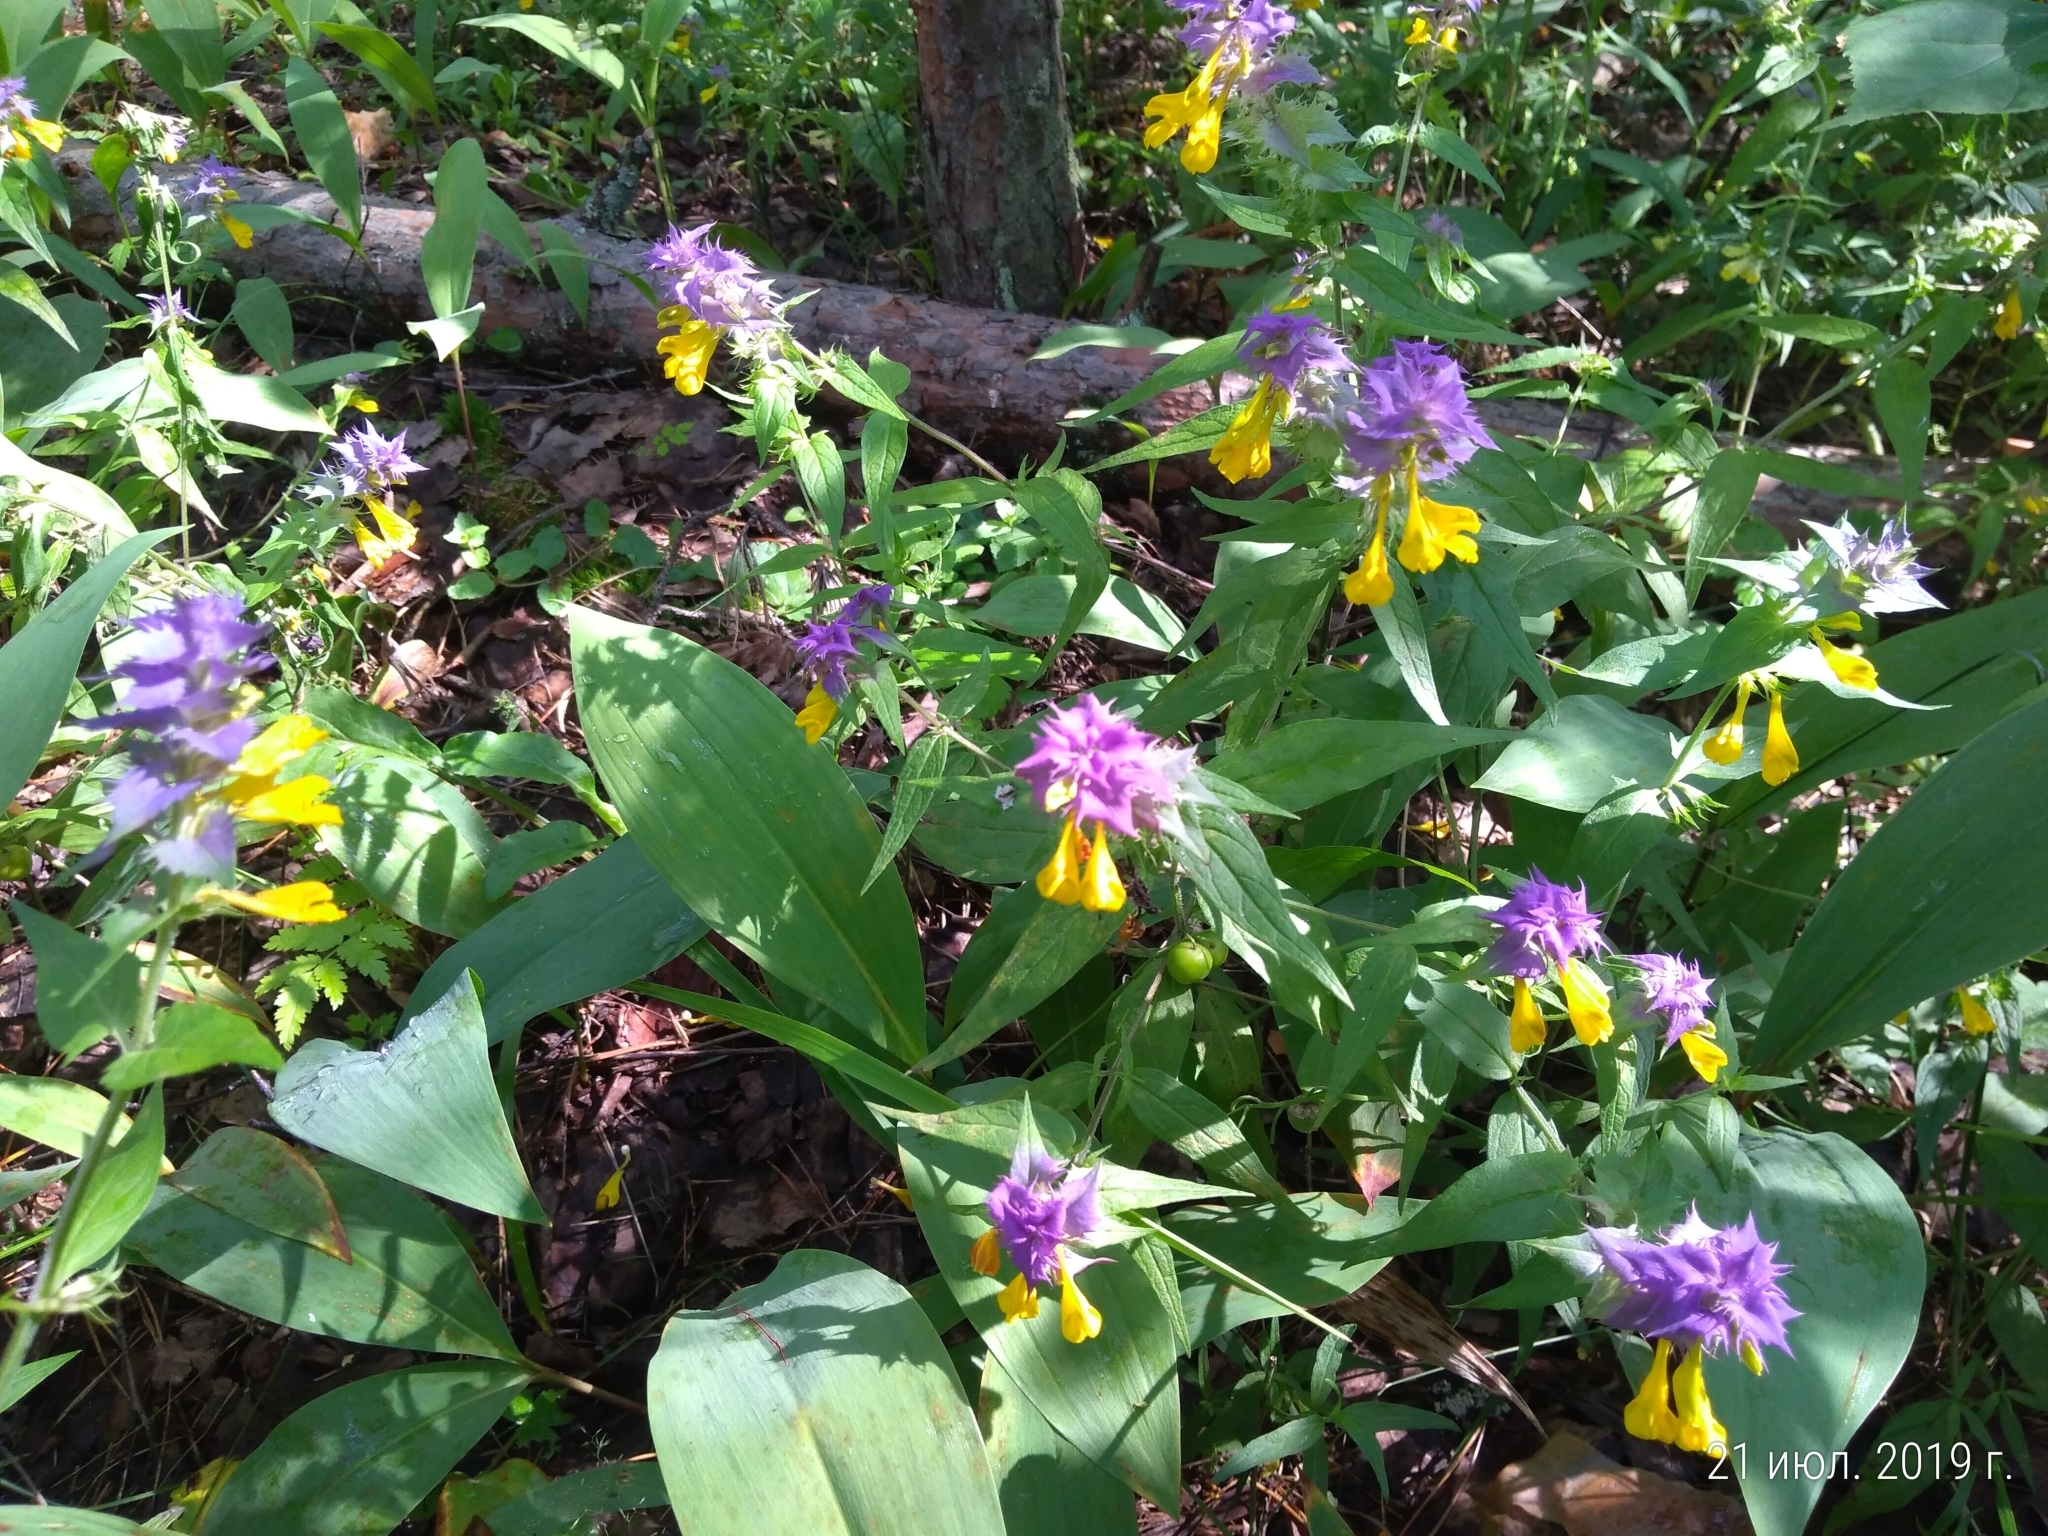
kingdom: Plantae
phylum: Tracheophyta
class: Magnoliopsida
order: Lamiales
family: Orobanchaceae
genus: Melampyrum
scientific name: Melampyrum nemorosum
